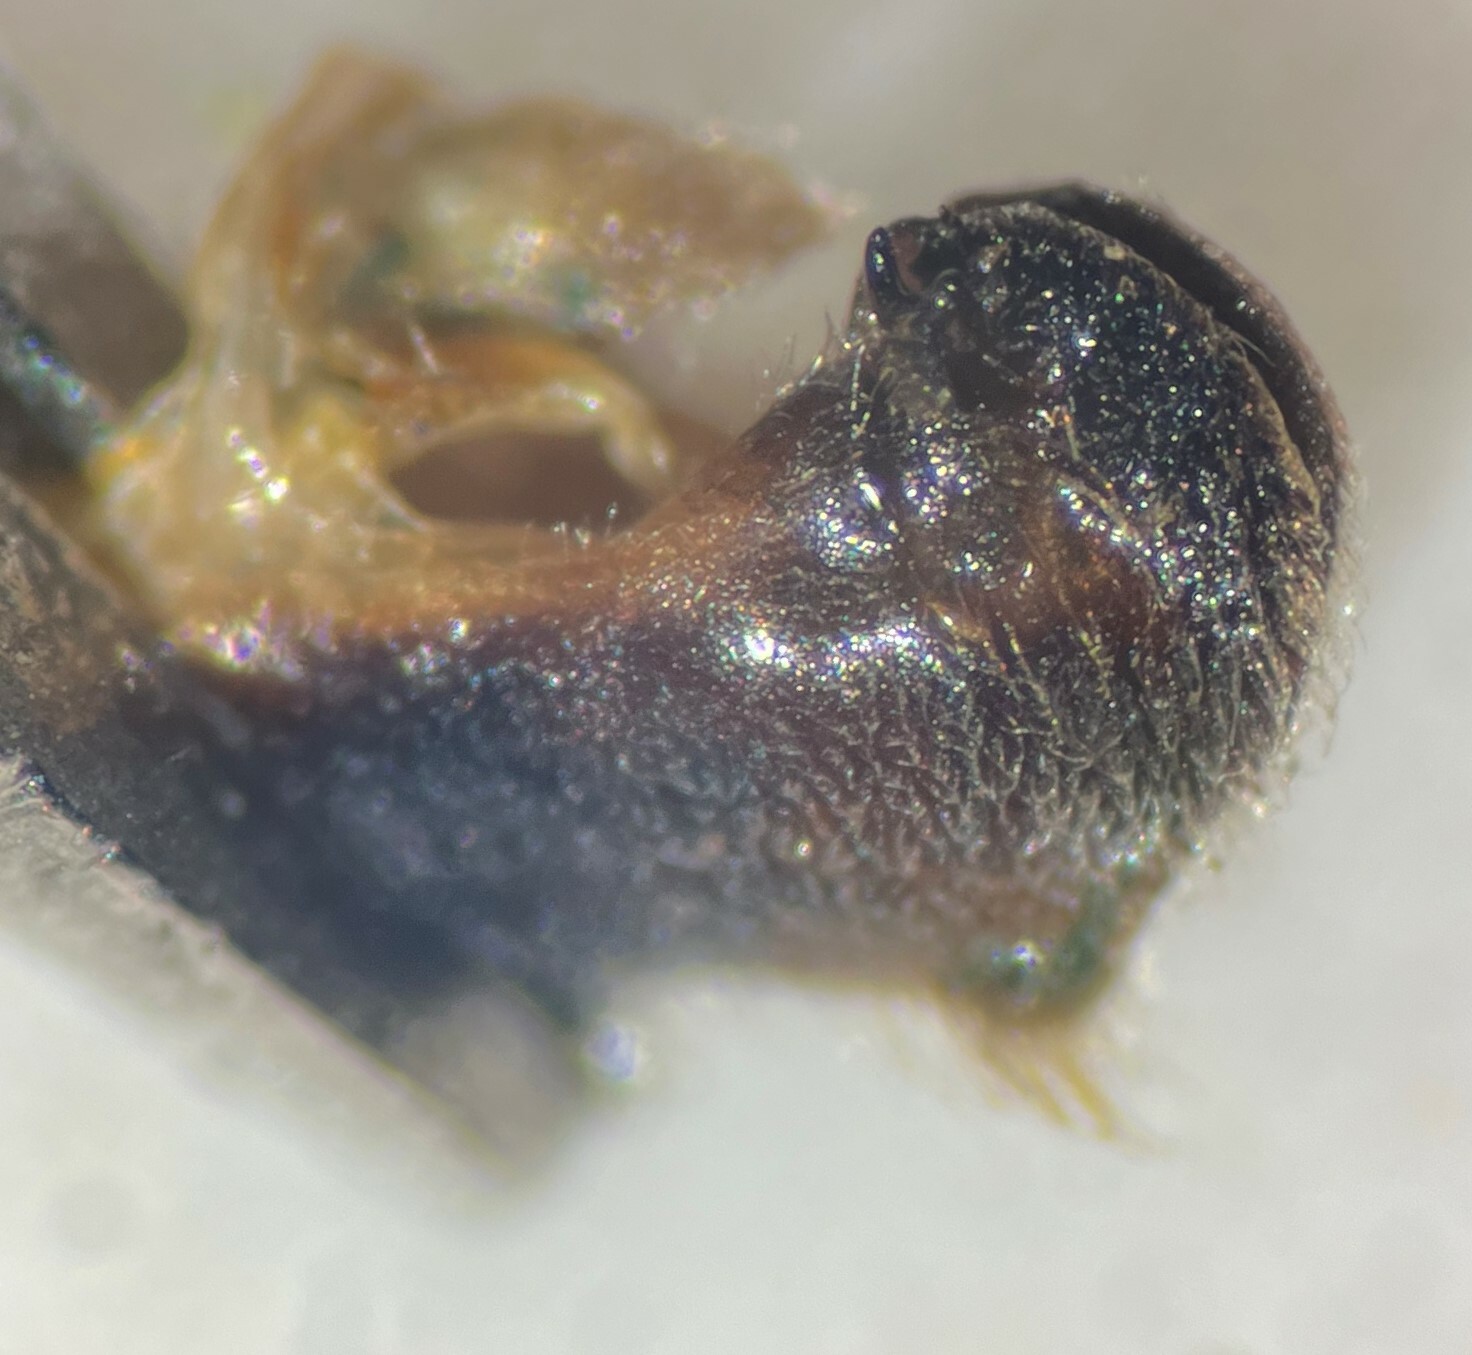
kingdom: Animalia
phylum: Arthropoda
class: Insecta
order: Hemiptera
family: Notonectidae
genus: Notonecta
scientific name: Notonecta lunata
